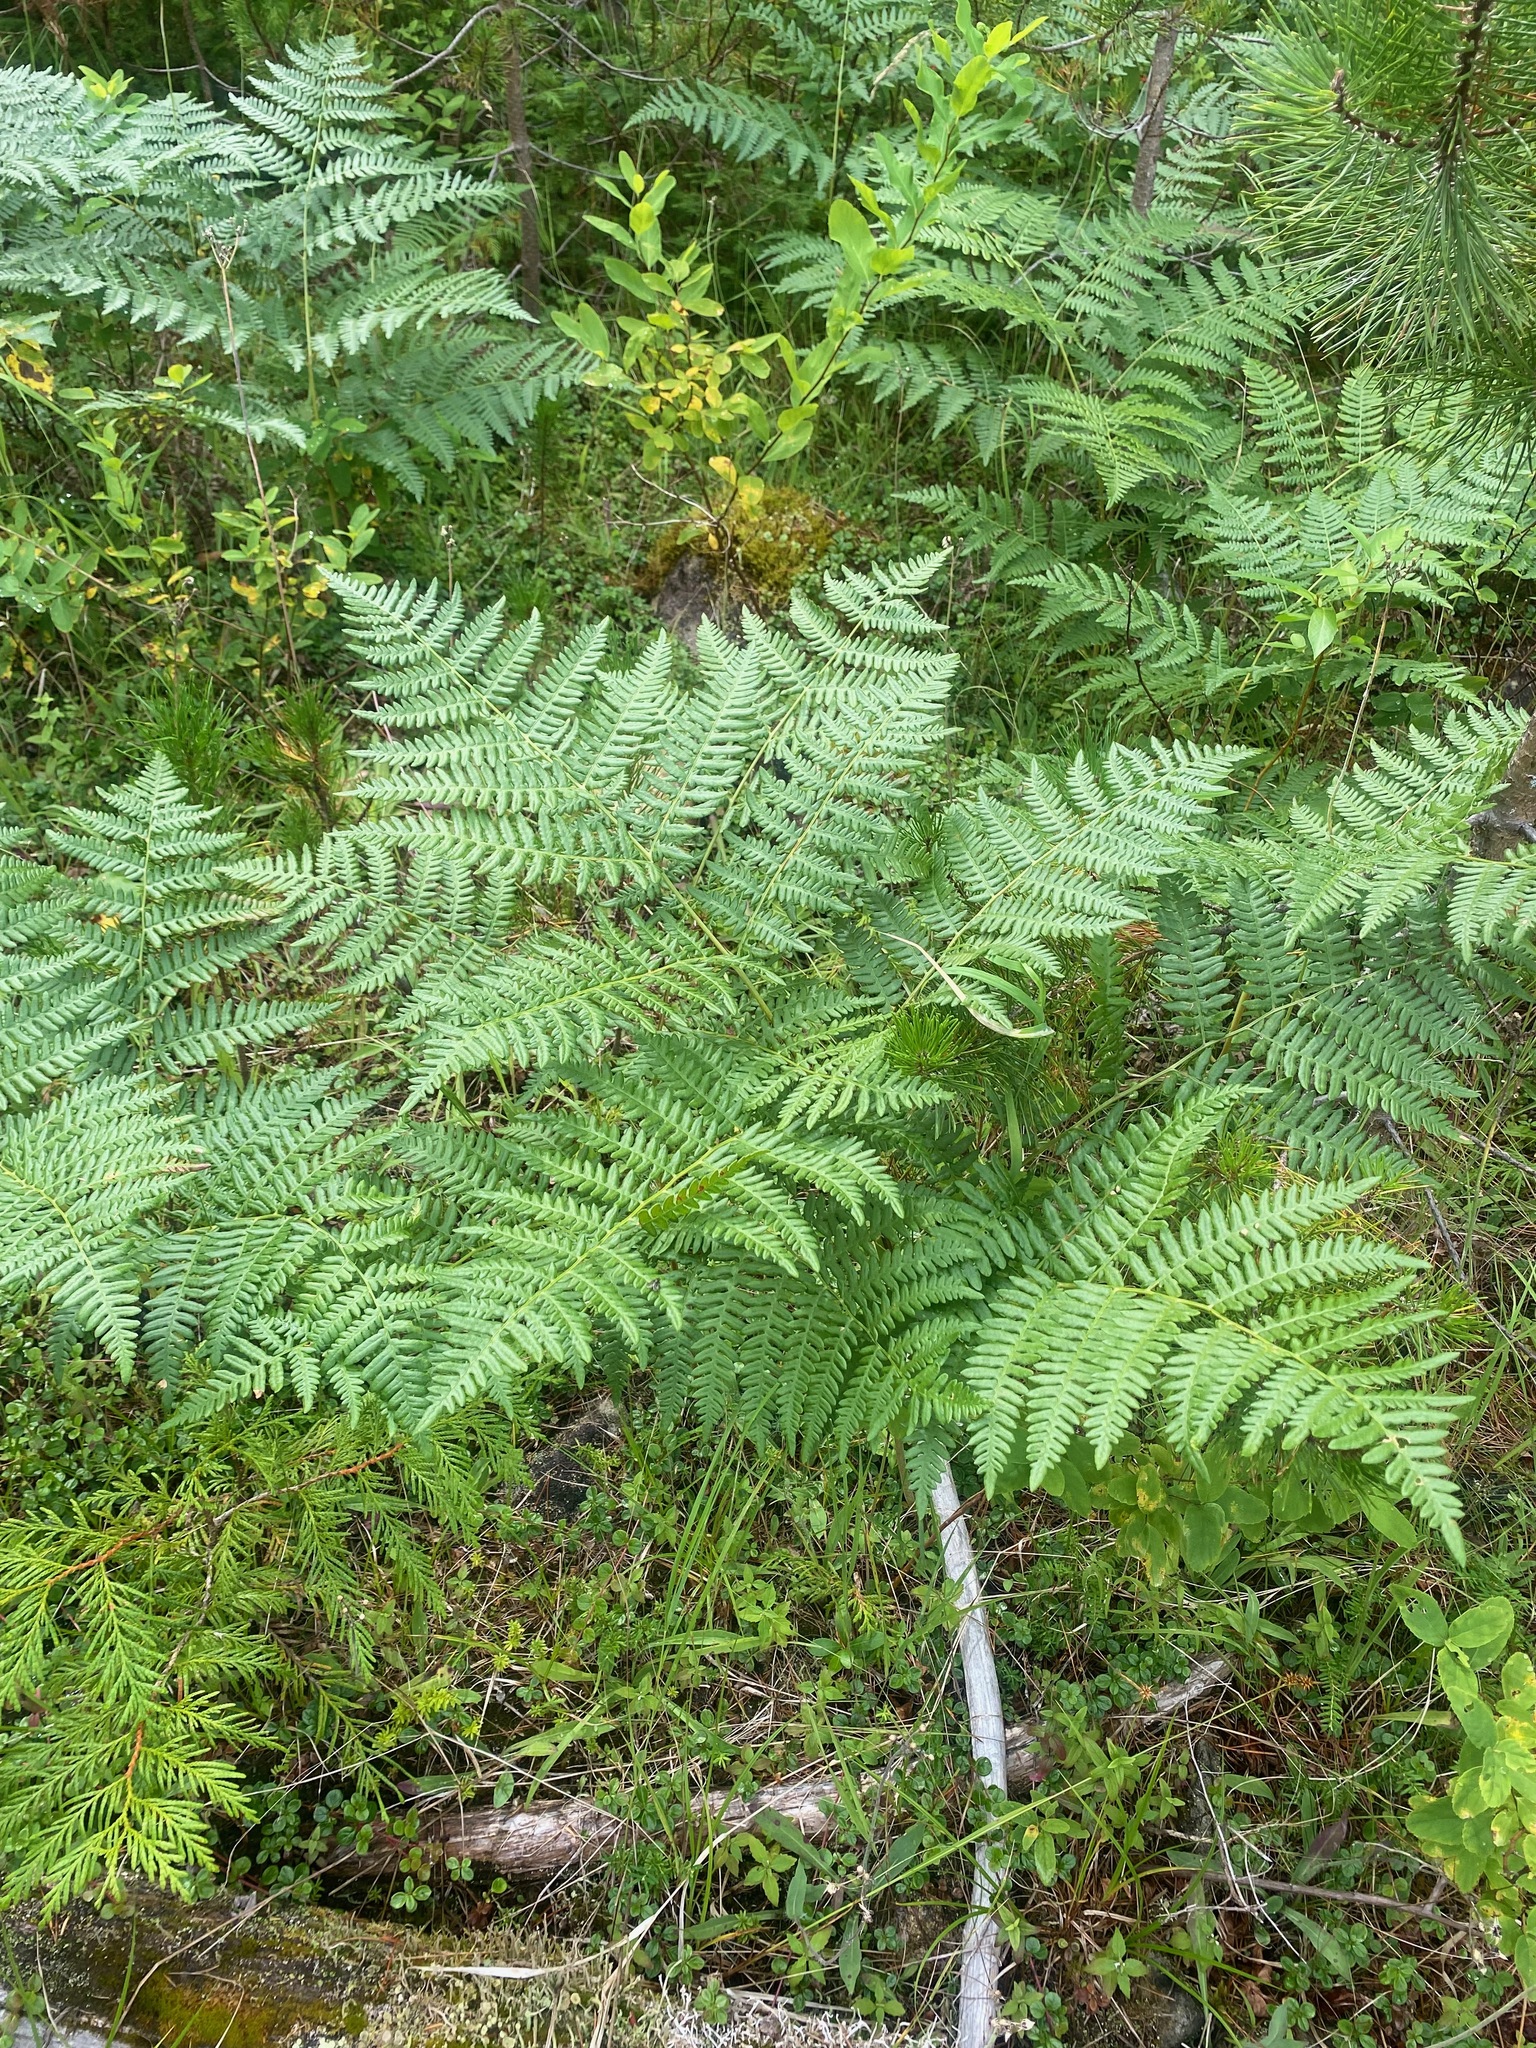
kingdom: Plantae
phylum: Tracheophyta
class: Polypodiopsida
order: Polypodiales
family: Dennstaedtiaceae
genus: Pteridium
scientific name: Pteridium aquilinum
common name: Bracken
